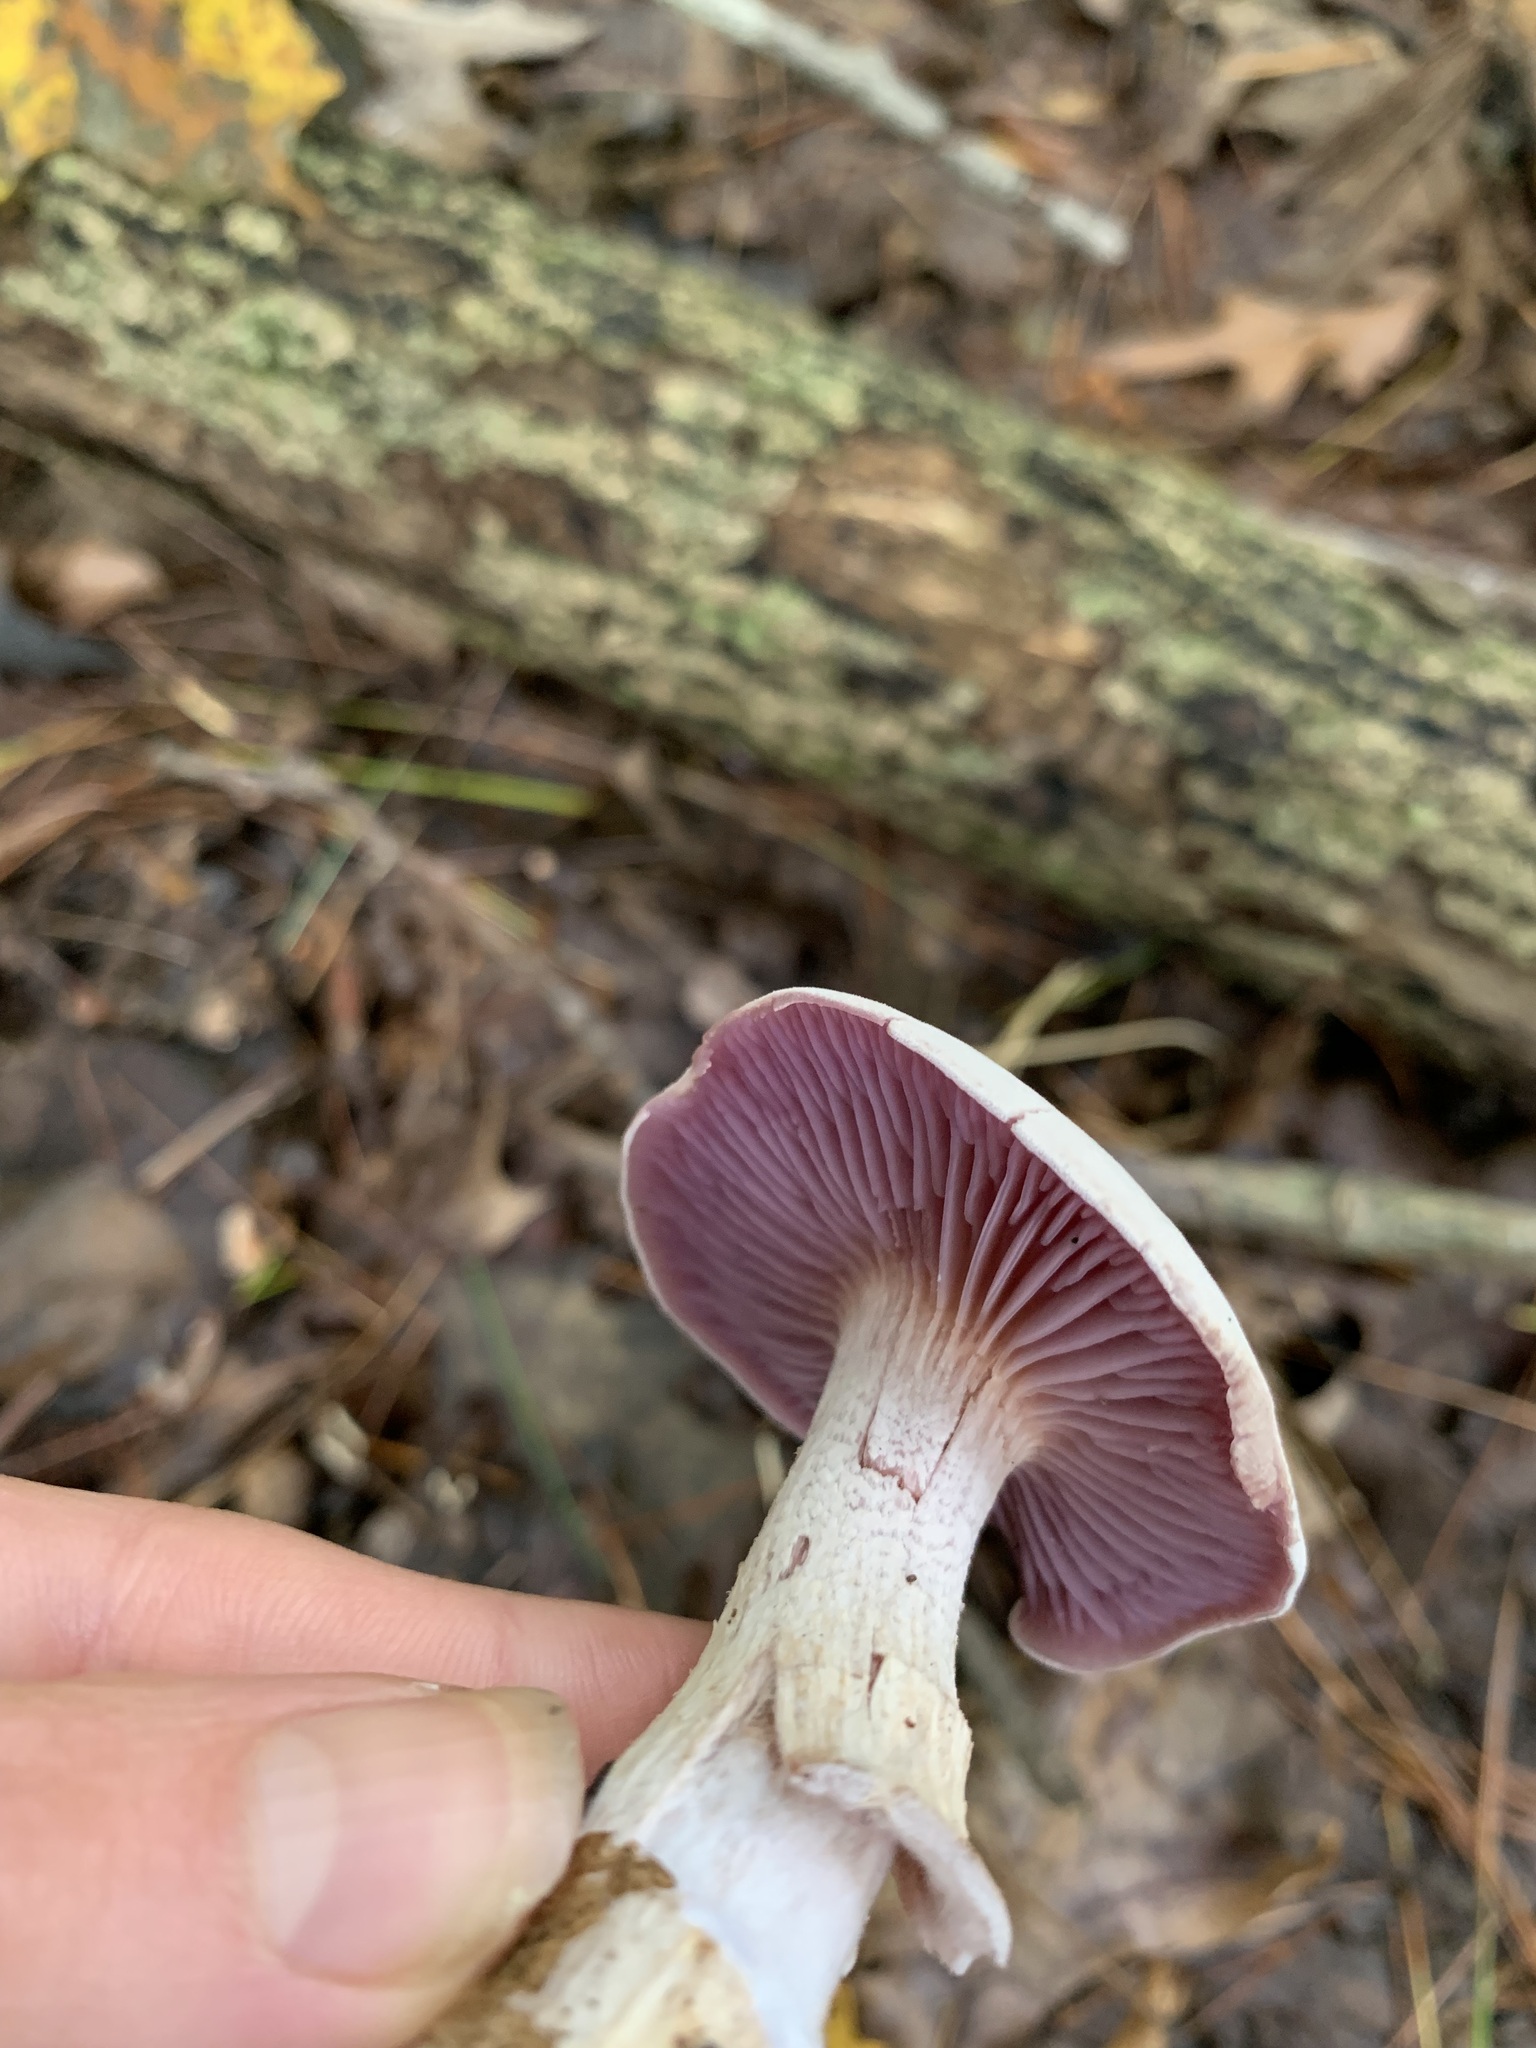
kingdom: Fungi
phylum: Basidiomycota
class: Agaricomycetes
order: Agaricales
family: Hydnangiaceae
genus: Laccaria
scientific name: Laccaria ochropurpurea
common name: Purple laccaria
